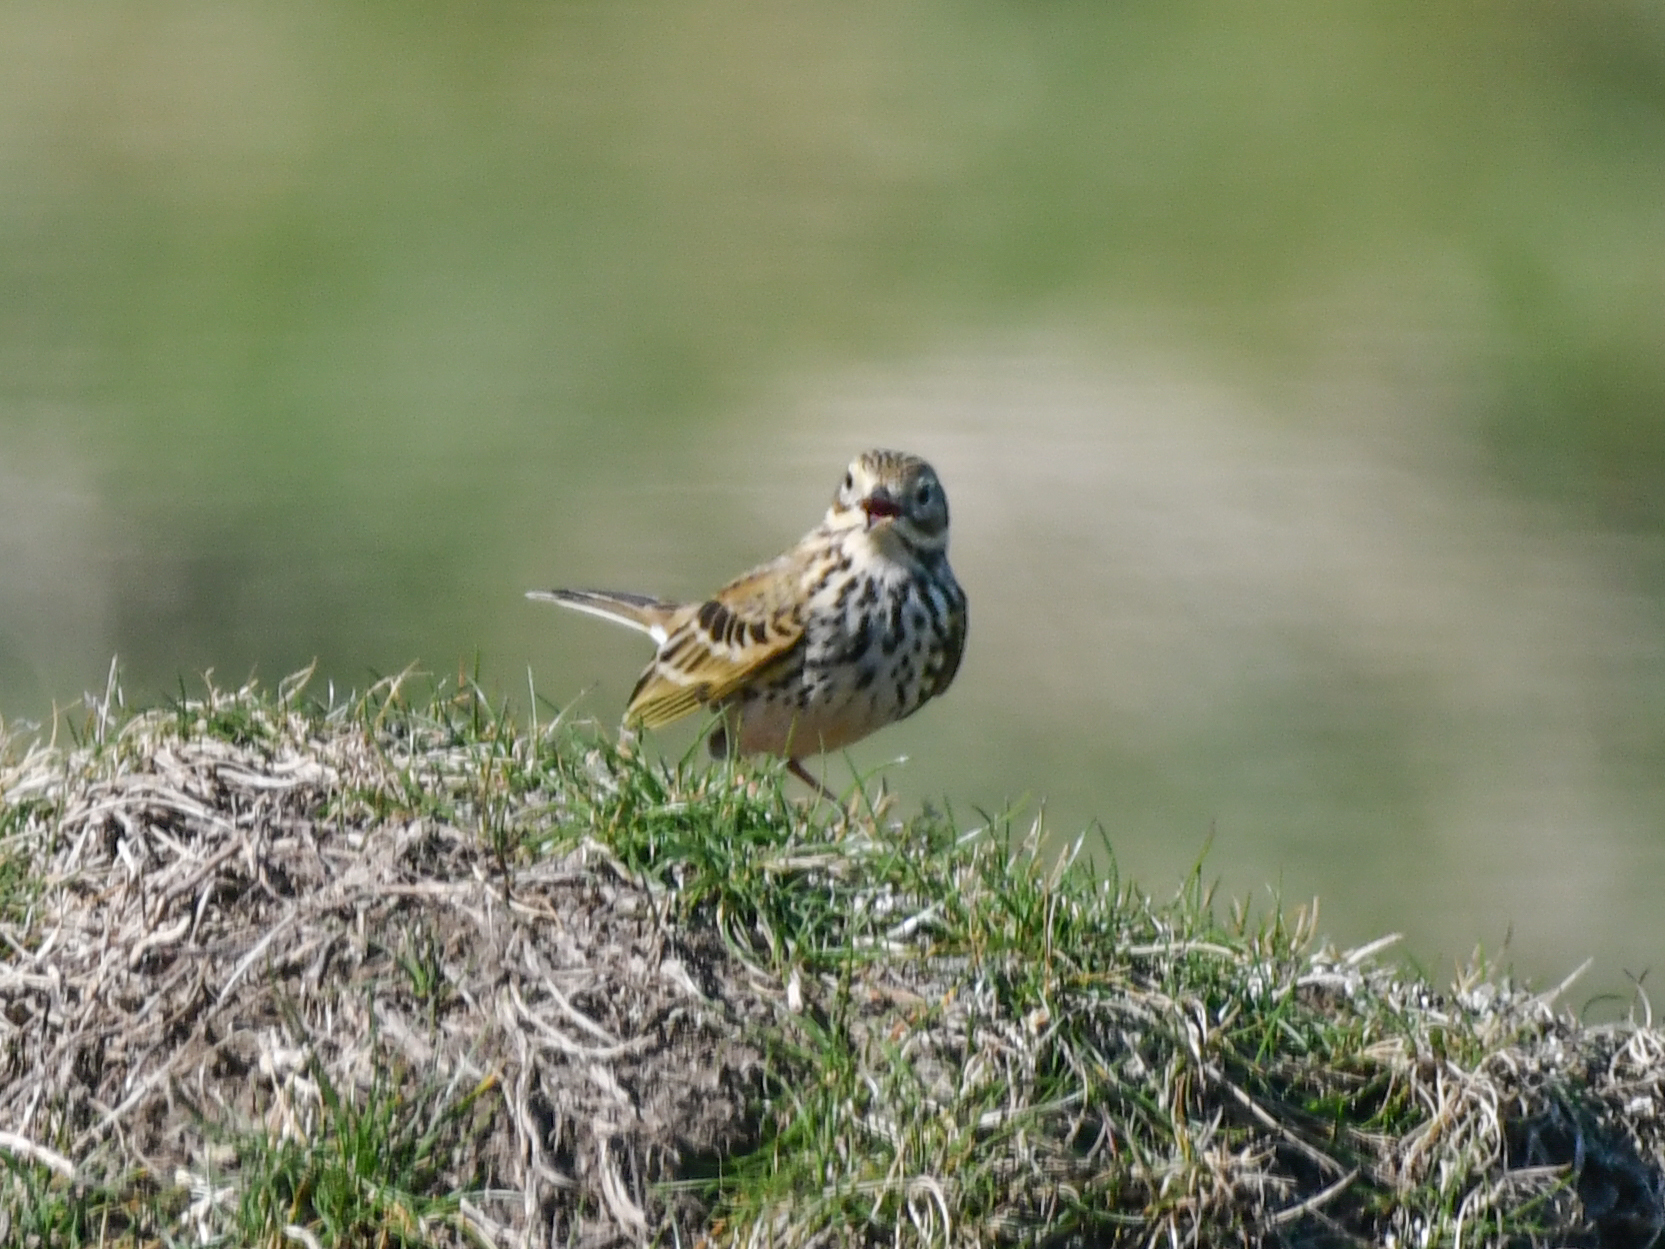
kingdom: Animalia
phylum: Chordata
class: Aves
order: Passeriformes
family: Motacillidae
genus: Anthus
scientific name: Anthus pratensis
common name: Meadow pipit
